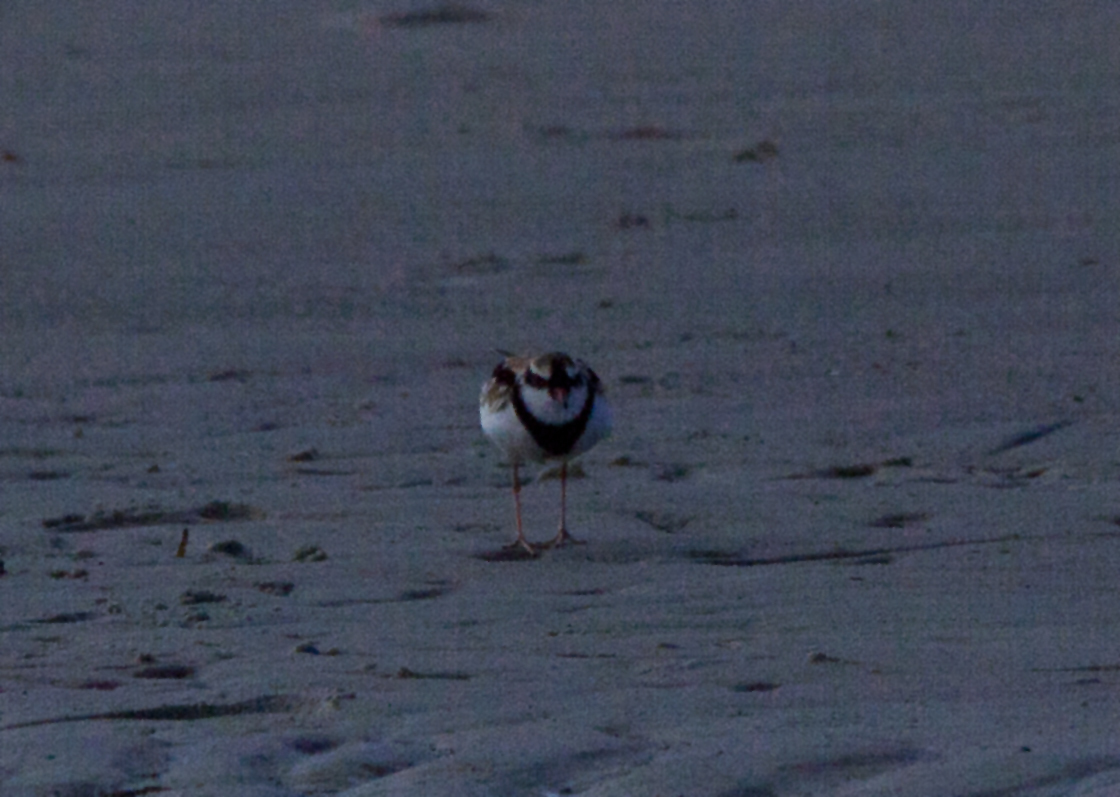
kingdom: Animalia
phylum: Chordata
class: Aves
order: Charadriiformes
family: Charadriidae
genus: Elseyornis
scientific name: Elseyornis melanops
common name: Black-fronted dotterel
